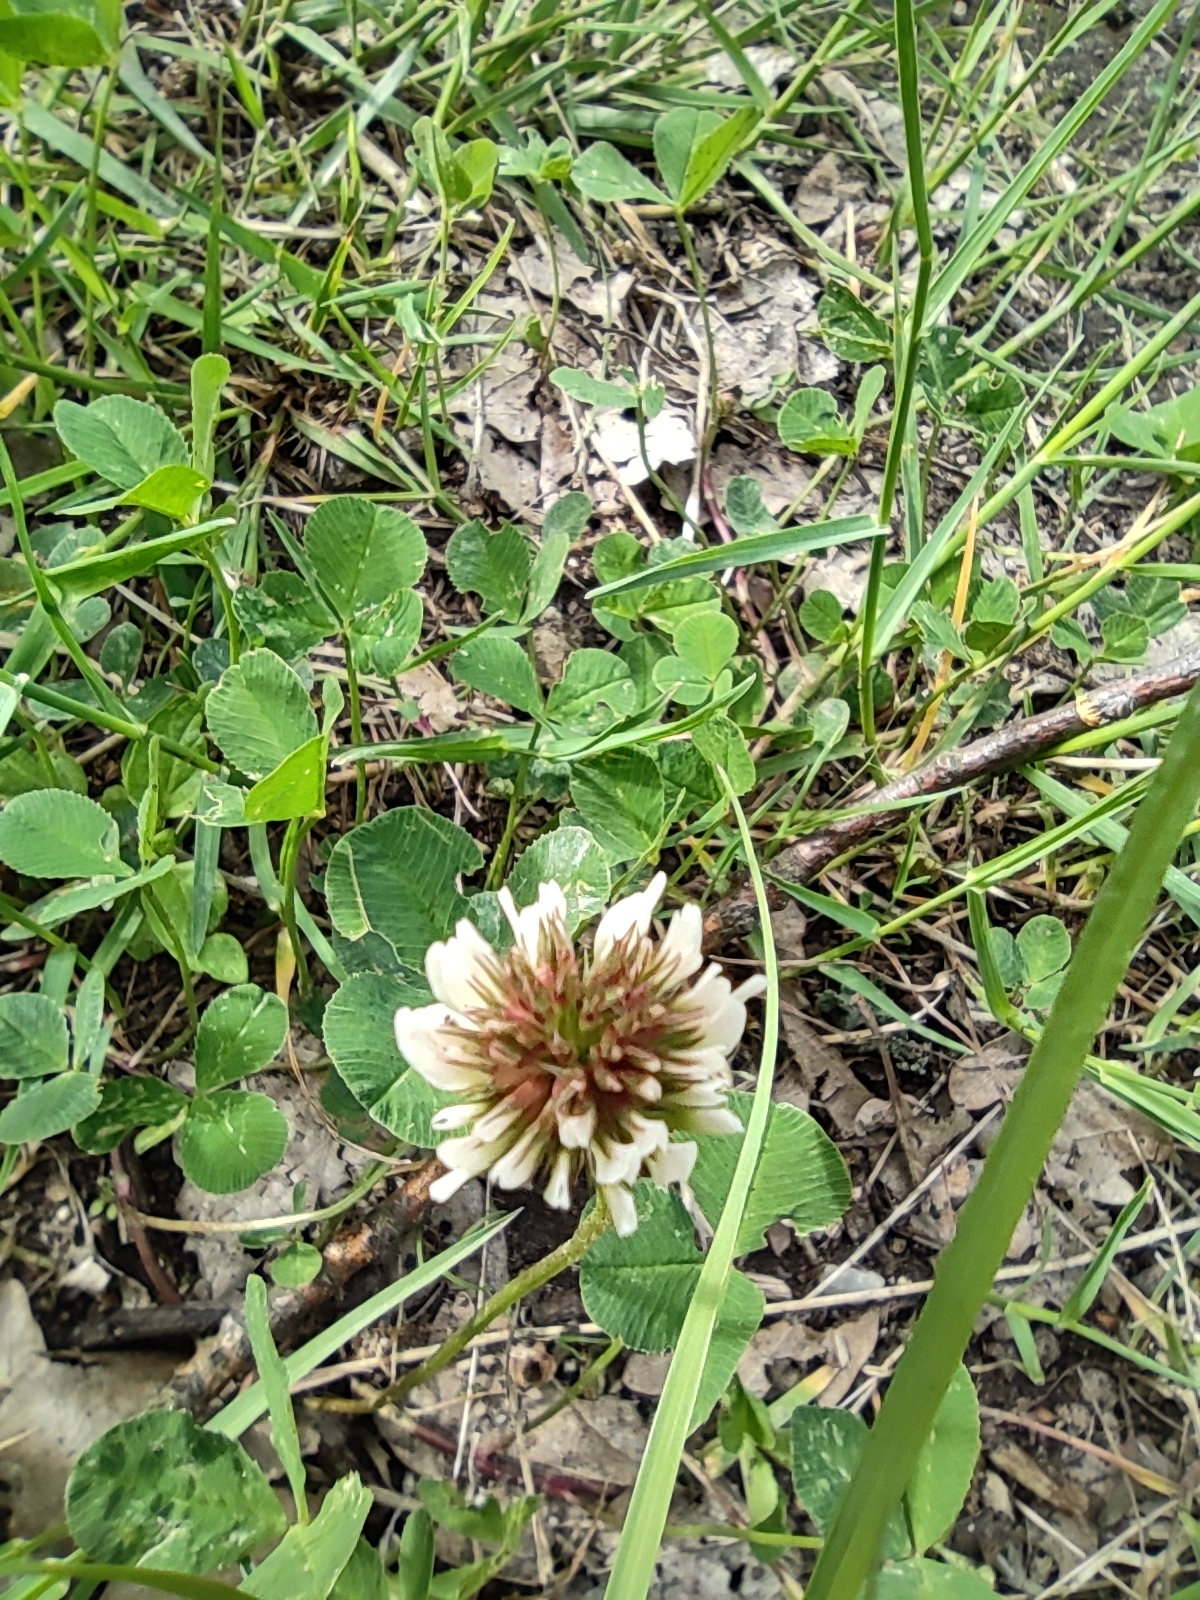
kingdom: Plantae
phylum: Tracheophyta
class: Magnoliopsida
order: Fabales
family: Fabaceae
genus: Trifolium
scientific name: Trifolium repens
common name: White clover
